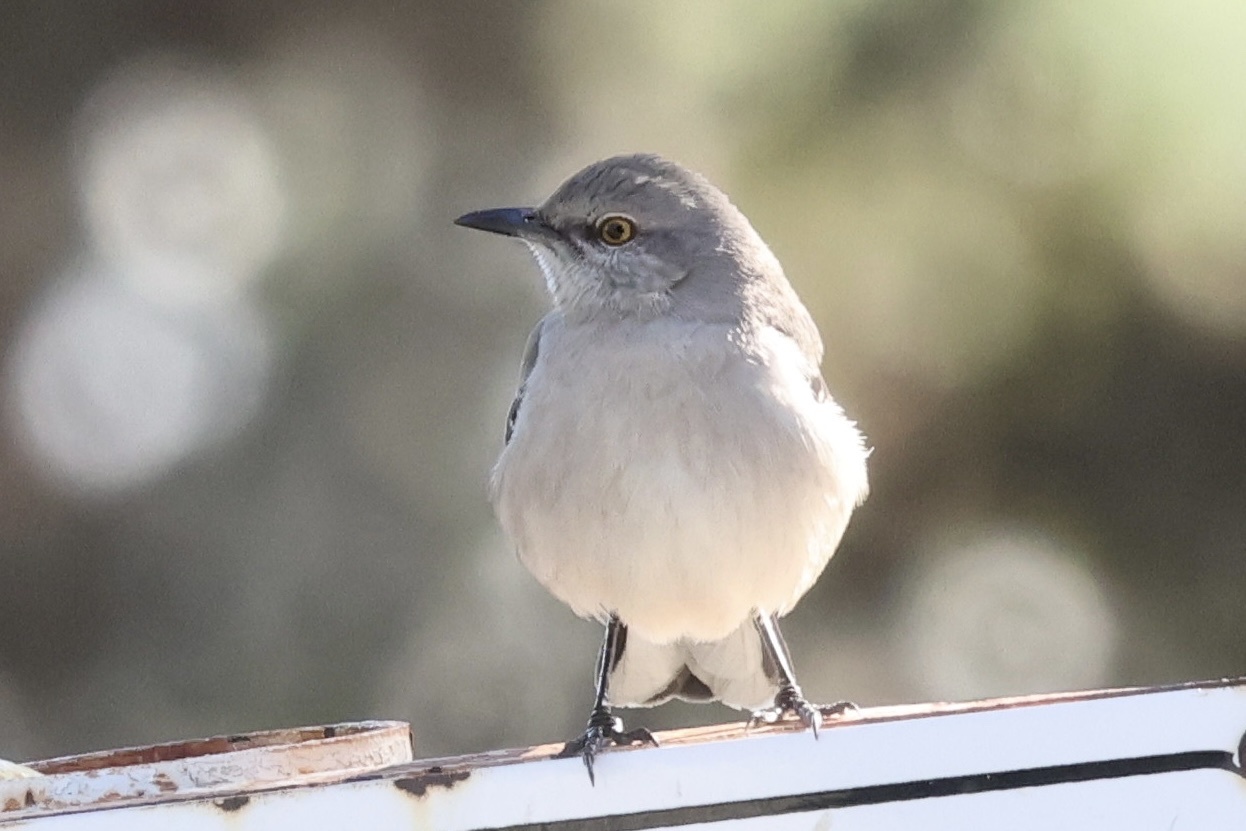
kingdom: Animalia
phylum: Chordata
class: Aves
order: Passeriformes
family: Mimidae
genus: Mimus
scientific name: Mimus polyglottos
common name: Northern mockingbird
